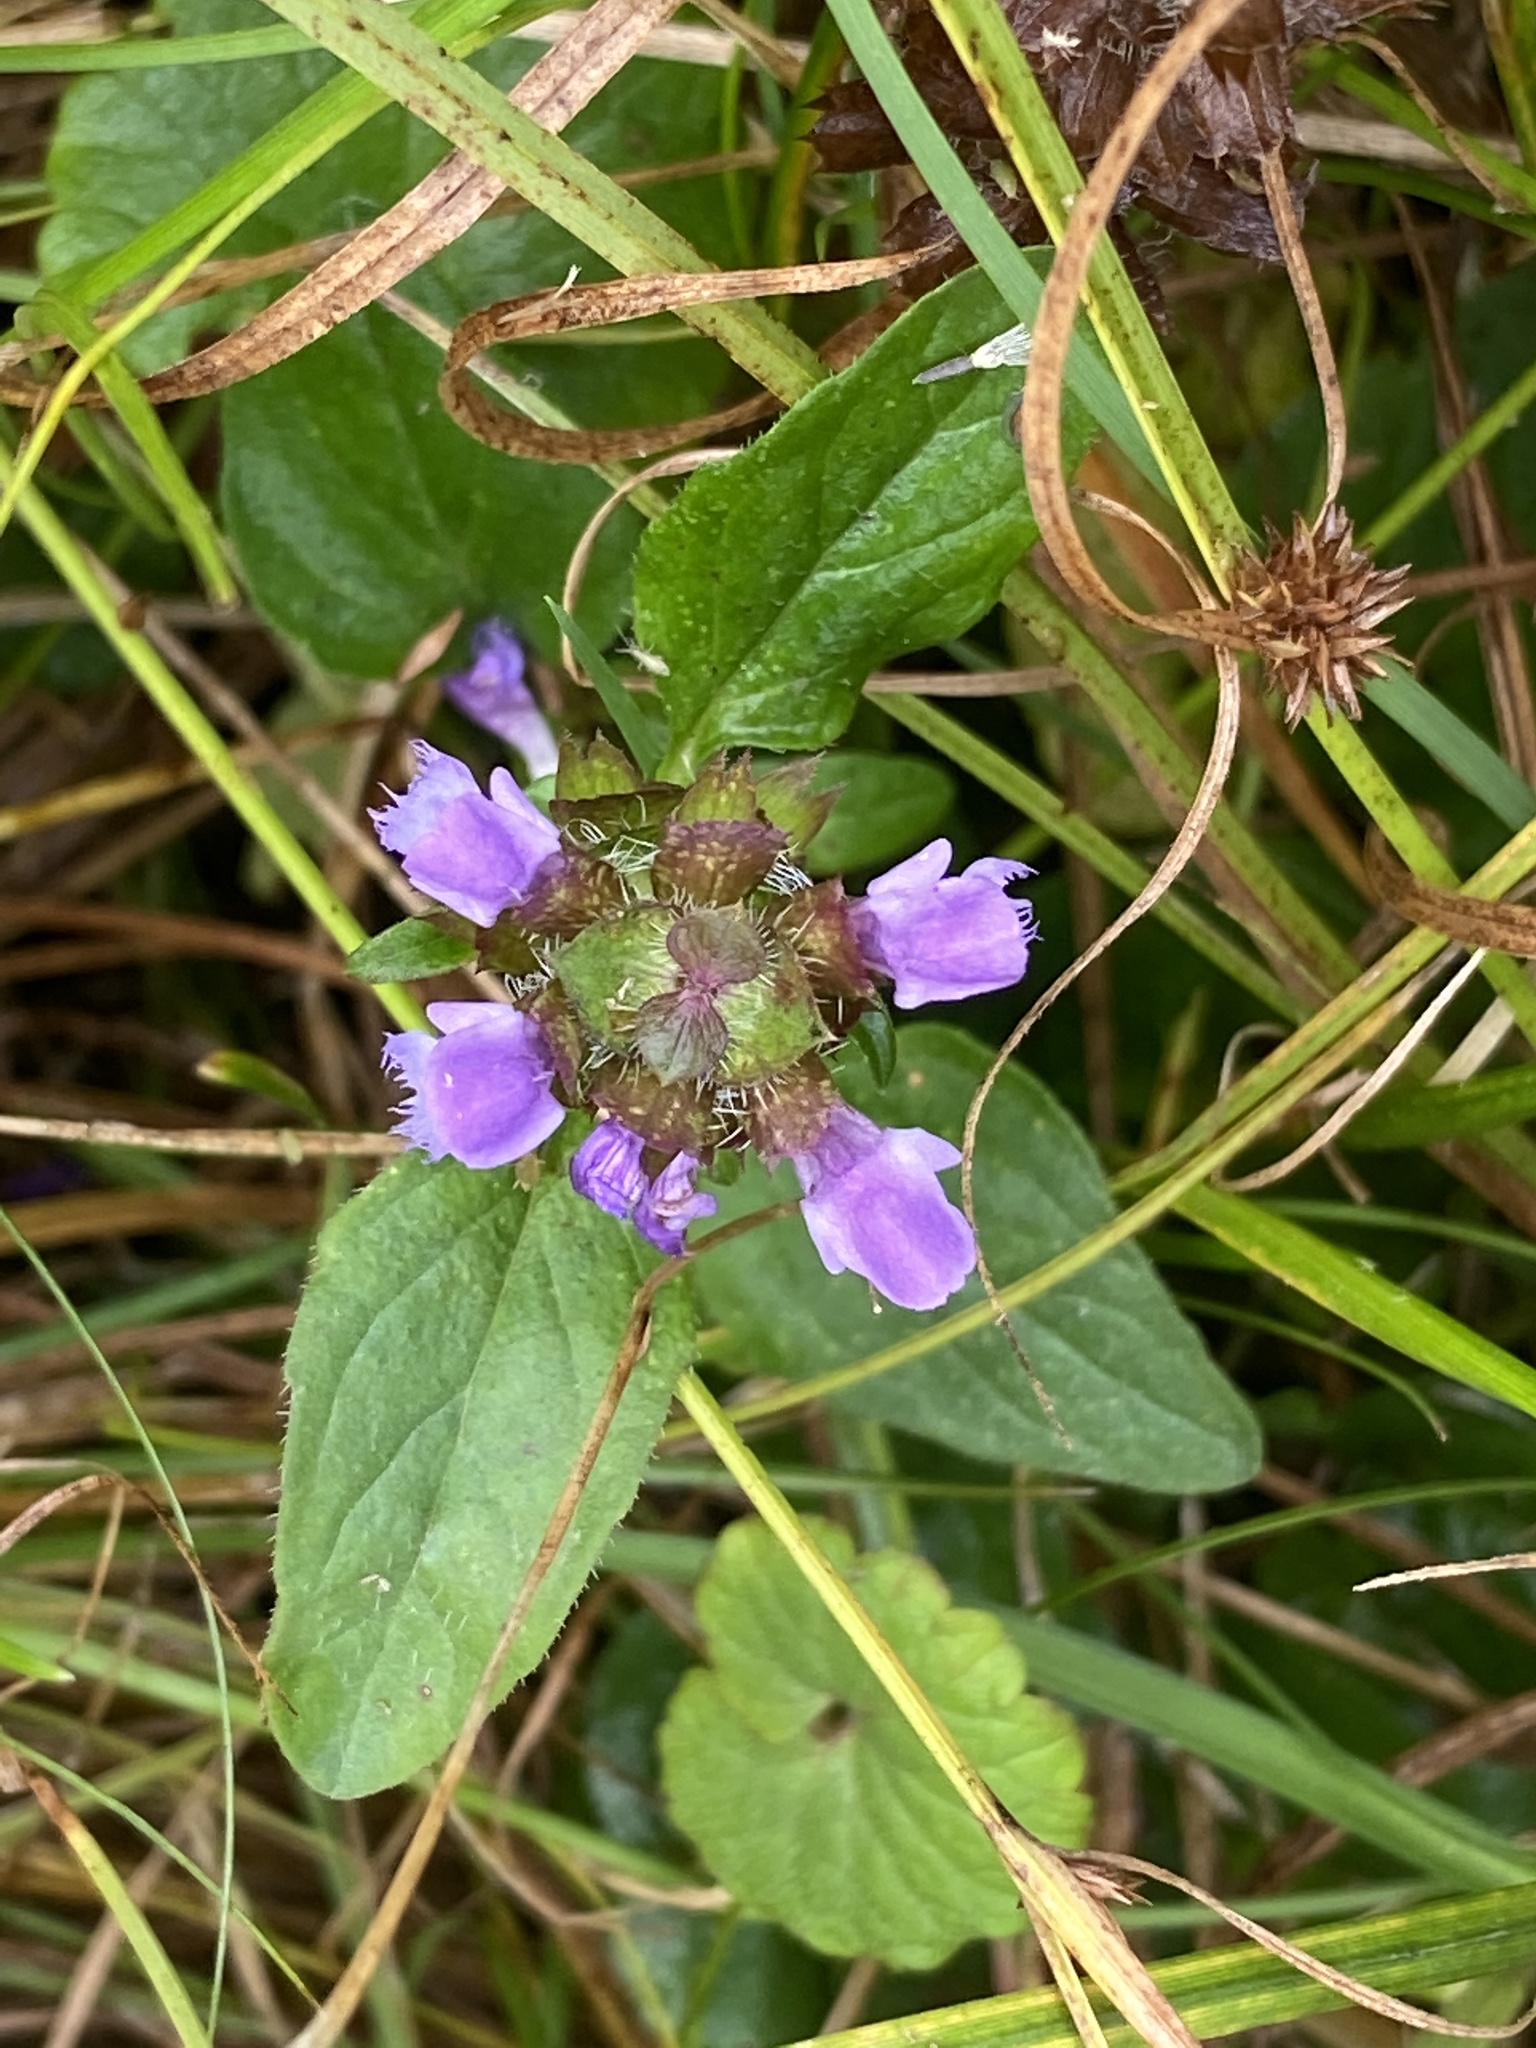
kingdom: Plantae
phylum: Tracheophyta
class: Magnoliopsida
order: Lamiales
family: Lamiaceae
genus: Prunella
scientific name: Prunella vulgaris
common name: Heal-all
